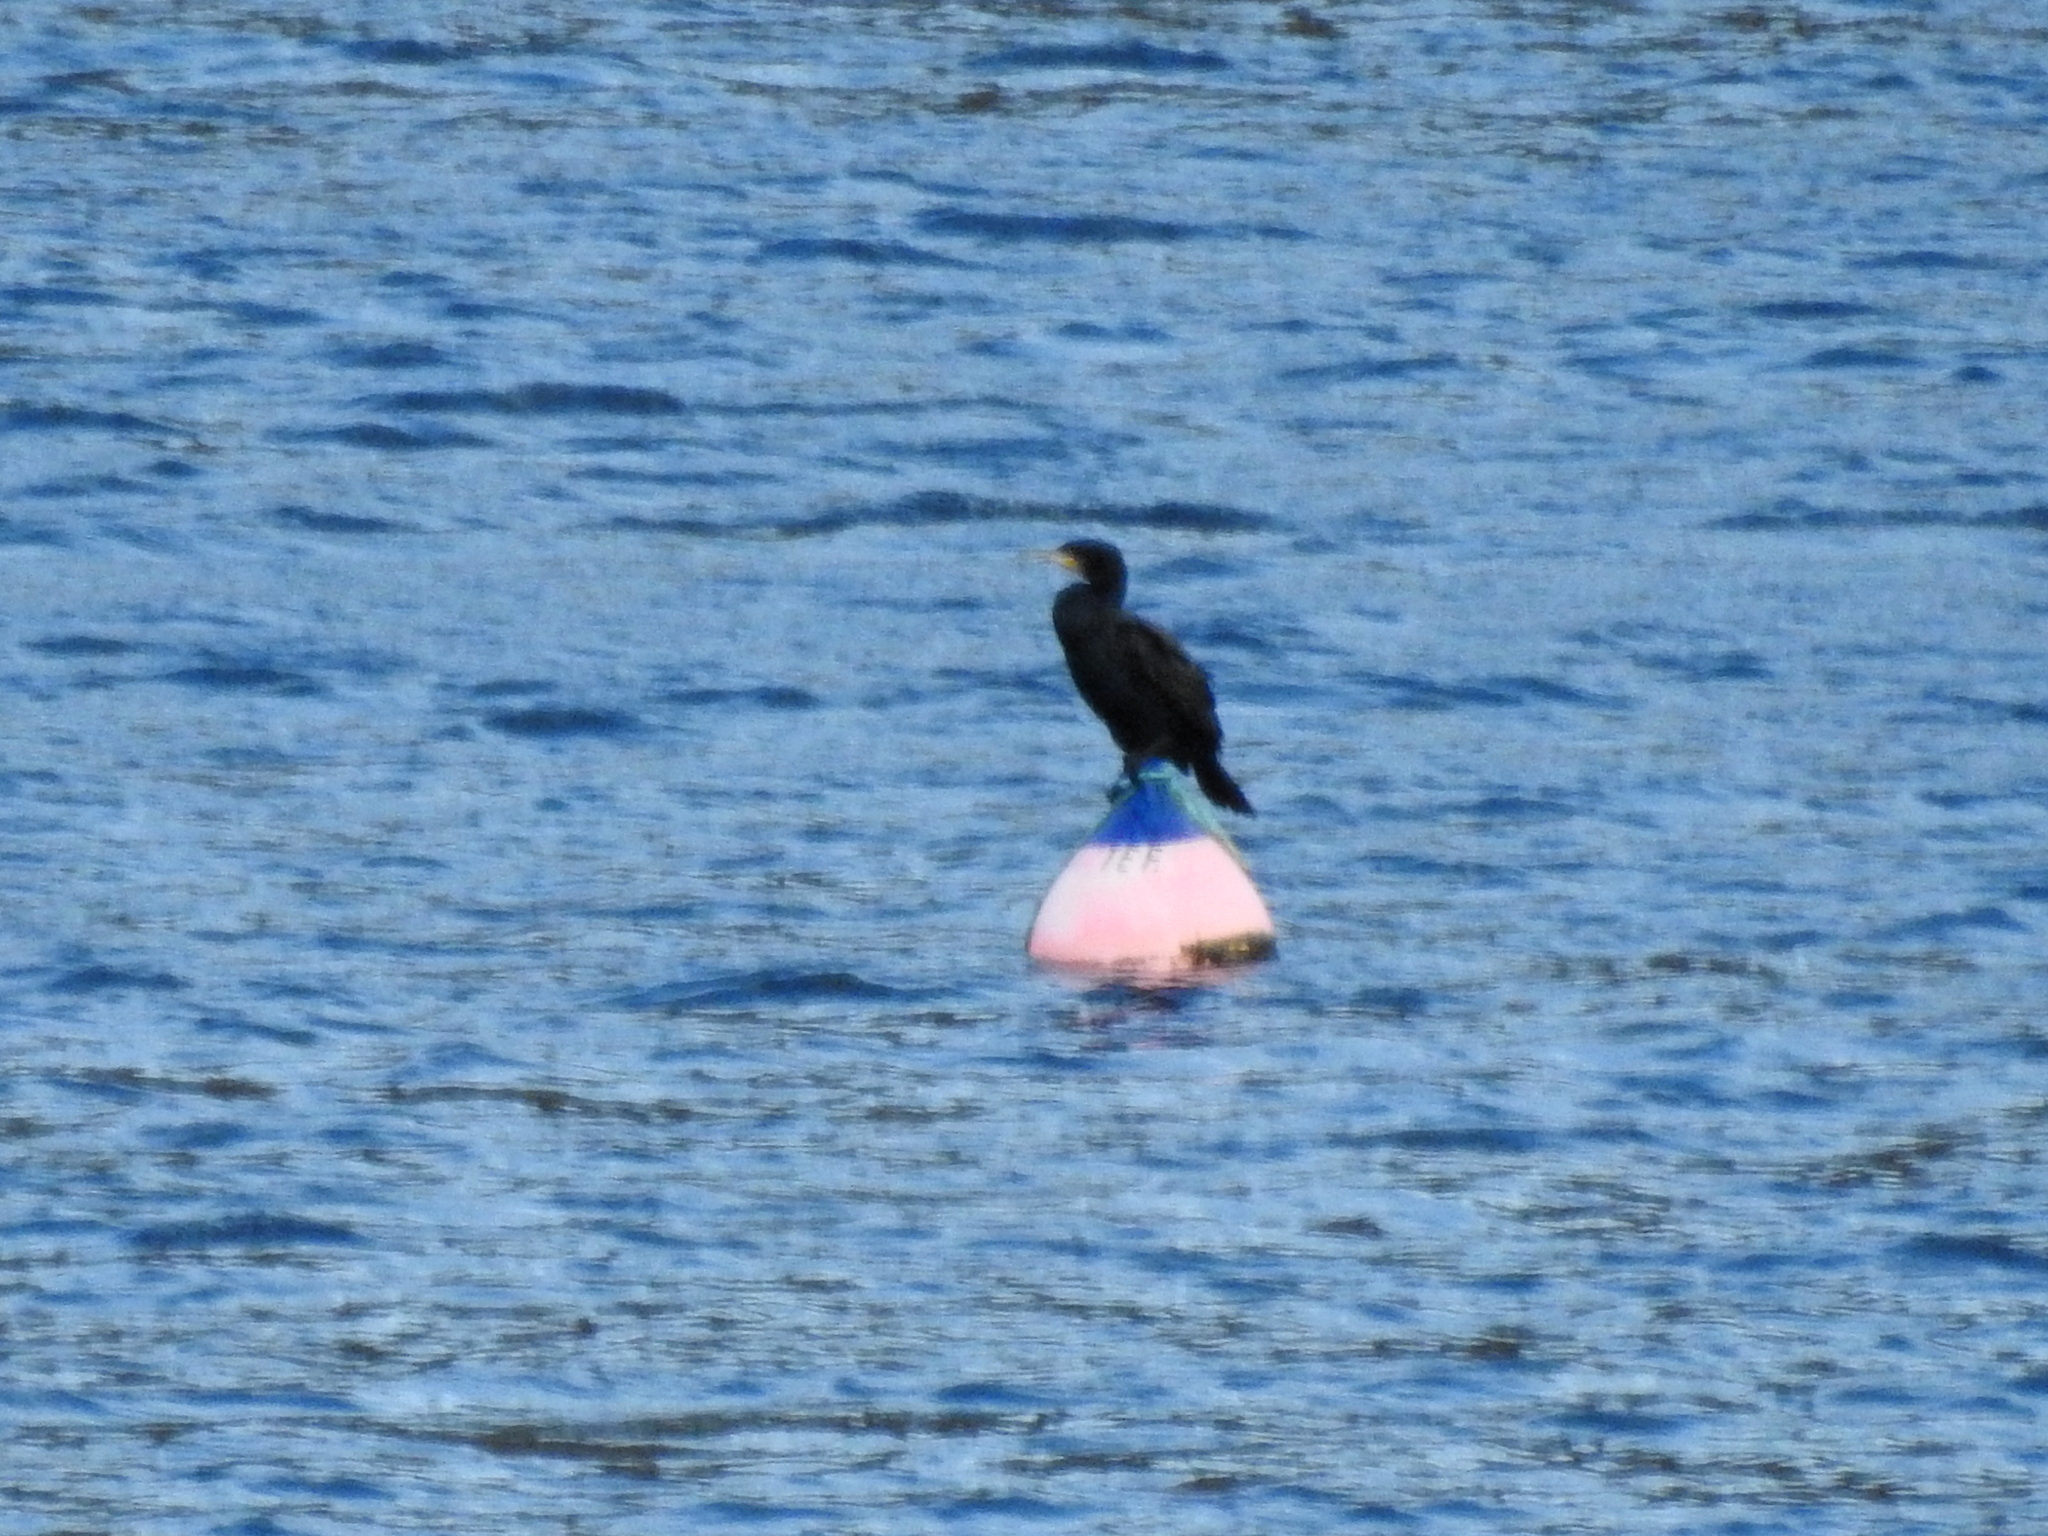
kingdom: Animalia
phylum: Chordata
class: Aves
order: Suliformes
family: Phalacrocoracidae
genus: Phalacrocorax
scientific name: Phalacrocorax carbo
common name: Great cormorant
